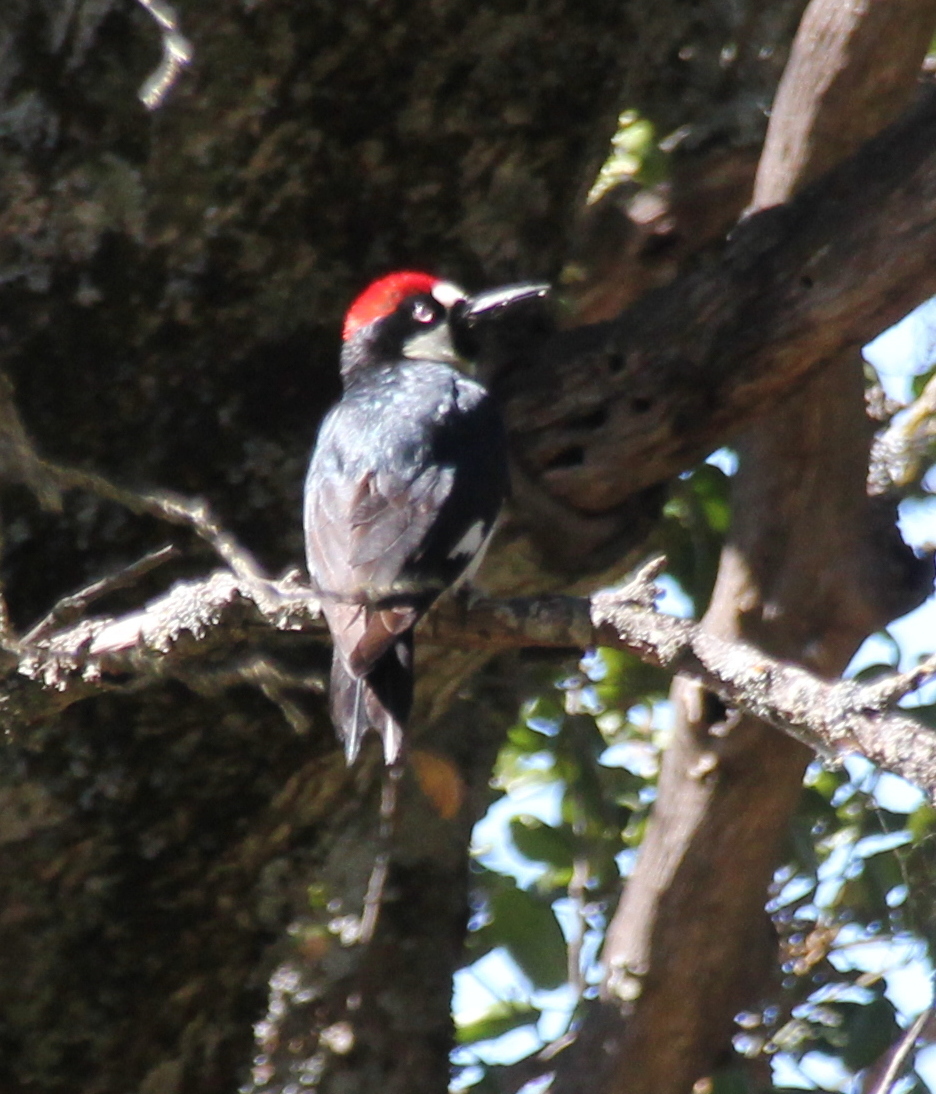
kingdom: Animalia
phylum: Chordata
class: Aves
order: Piciformes
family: Picidae
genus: Melanerpes
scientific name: Melanerpes formicivorus
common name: Acorn woodpecker
